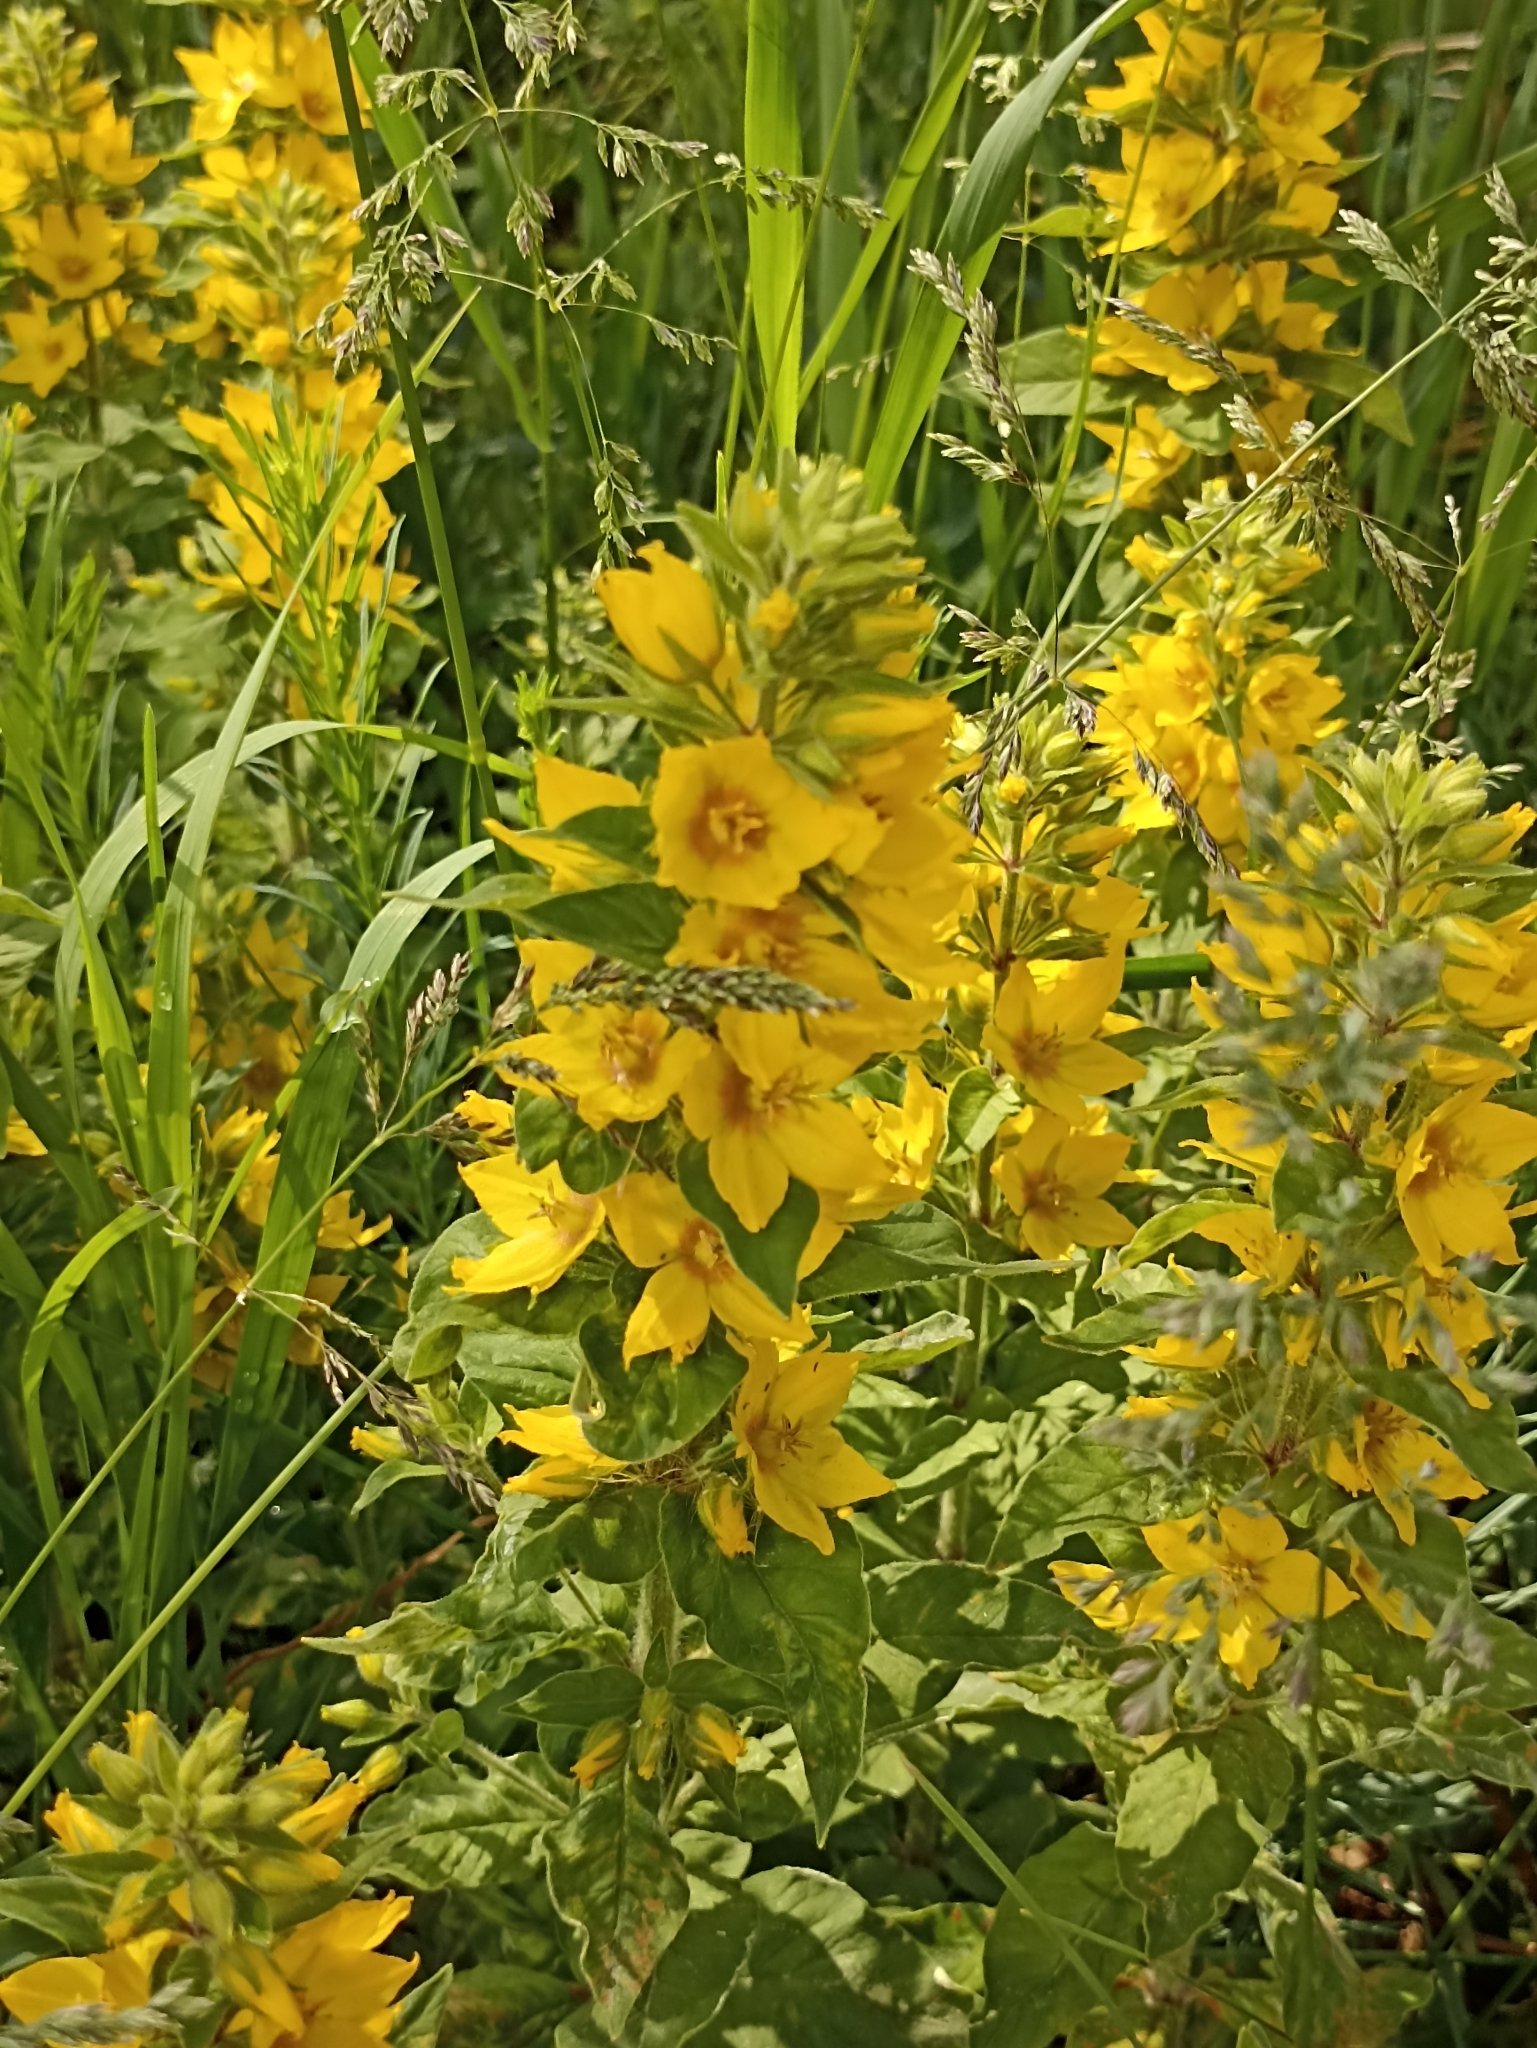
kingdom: Plantae
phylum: Tracheophyta
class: Magnoliopsida
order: Ericales
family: Primulaceae
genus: Lysimachia
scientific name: Lysimachia punctata
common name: Dotted loosestrife
